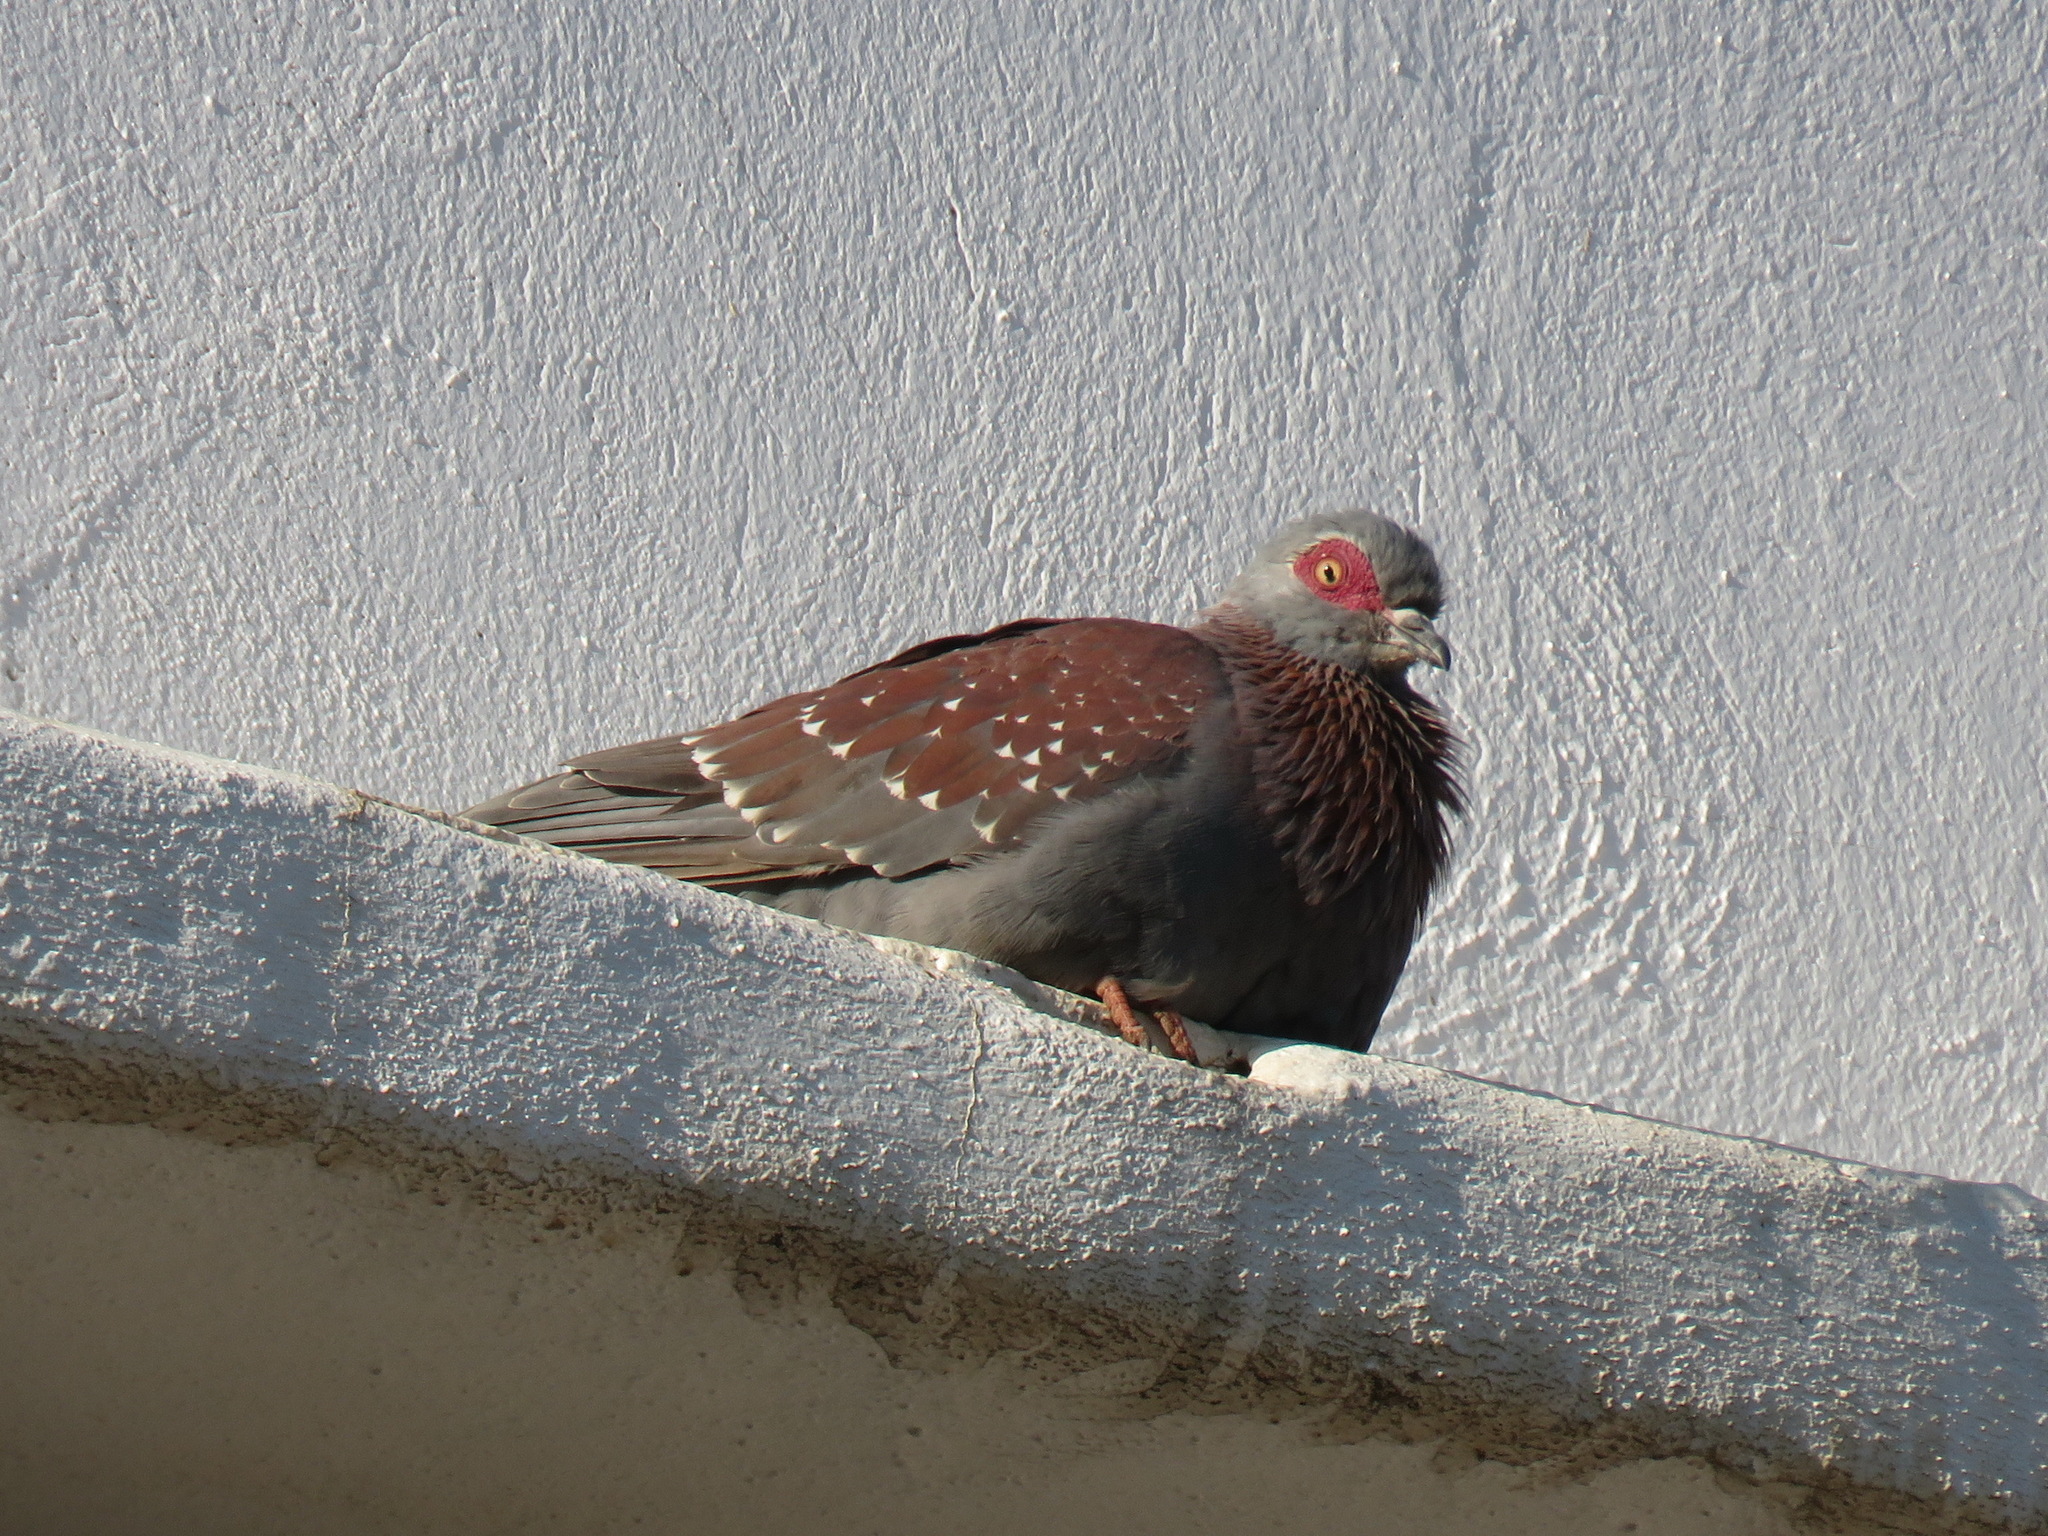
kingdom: Animalia
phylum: Chordata
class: Aves
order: Columbiformes
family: Columbidae
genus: Columba
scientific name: Columba guinea
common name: Speckled pigeon
